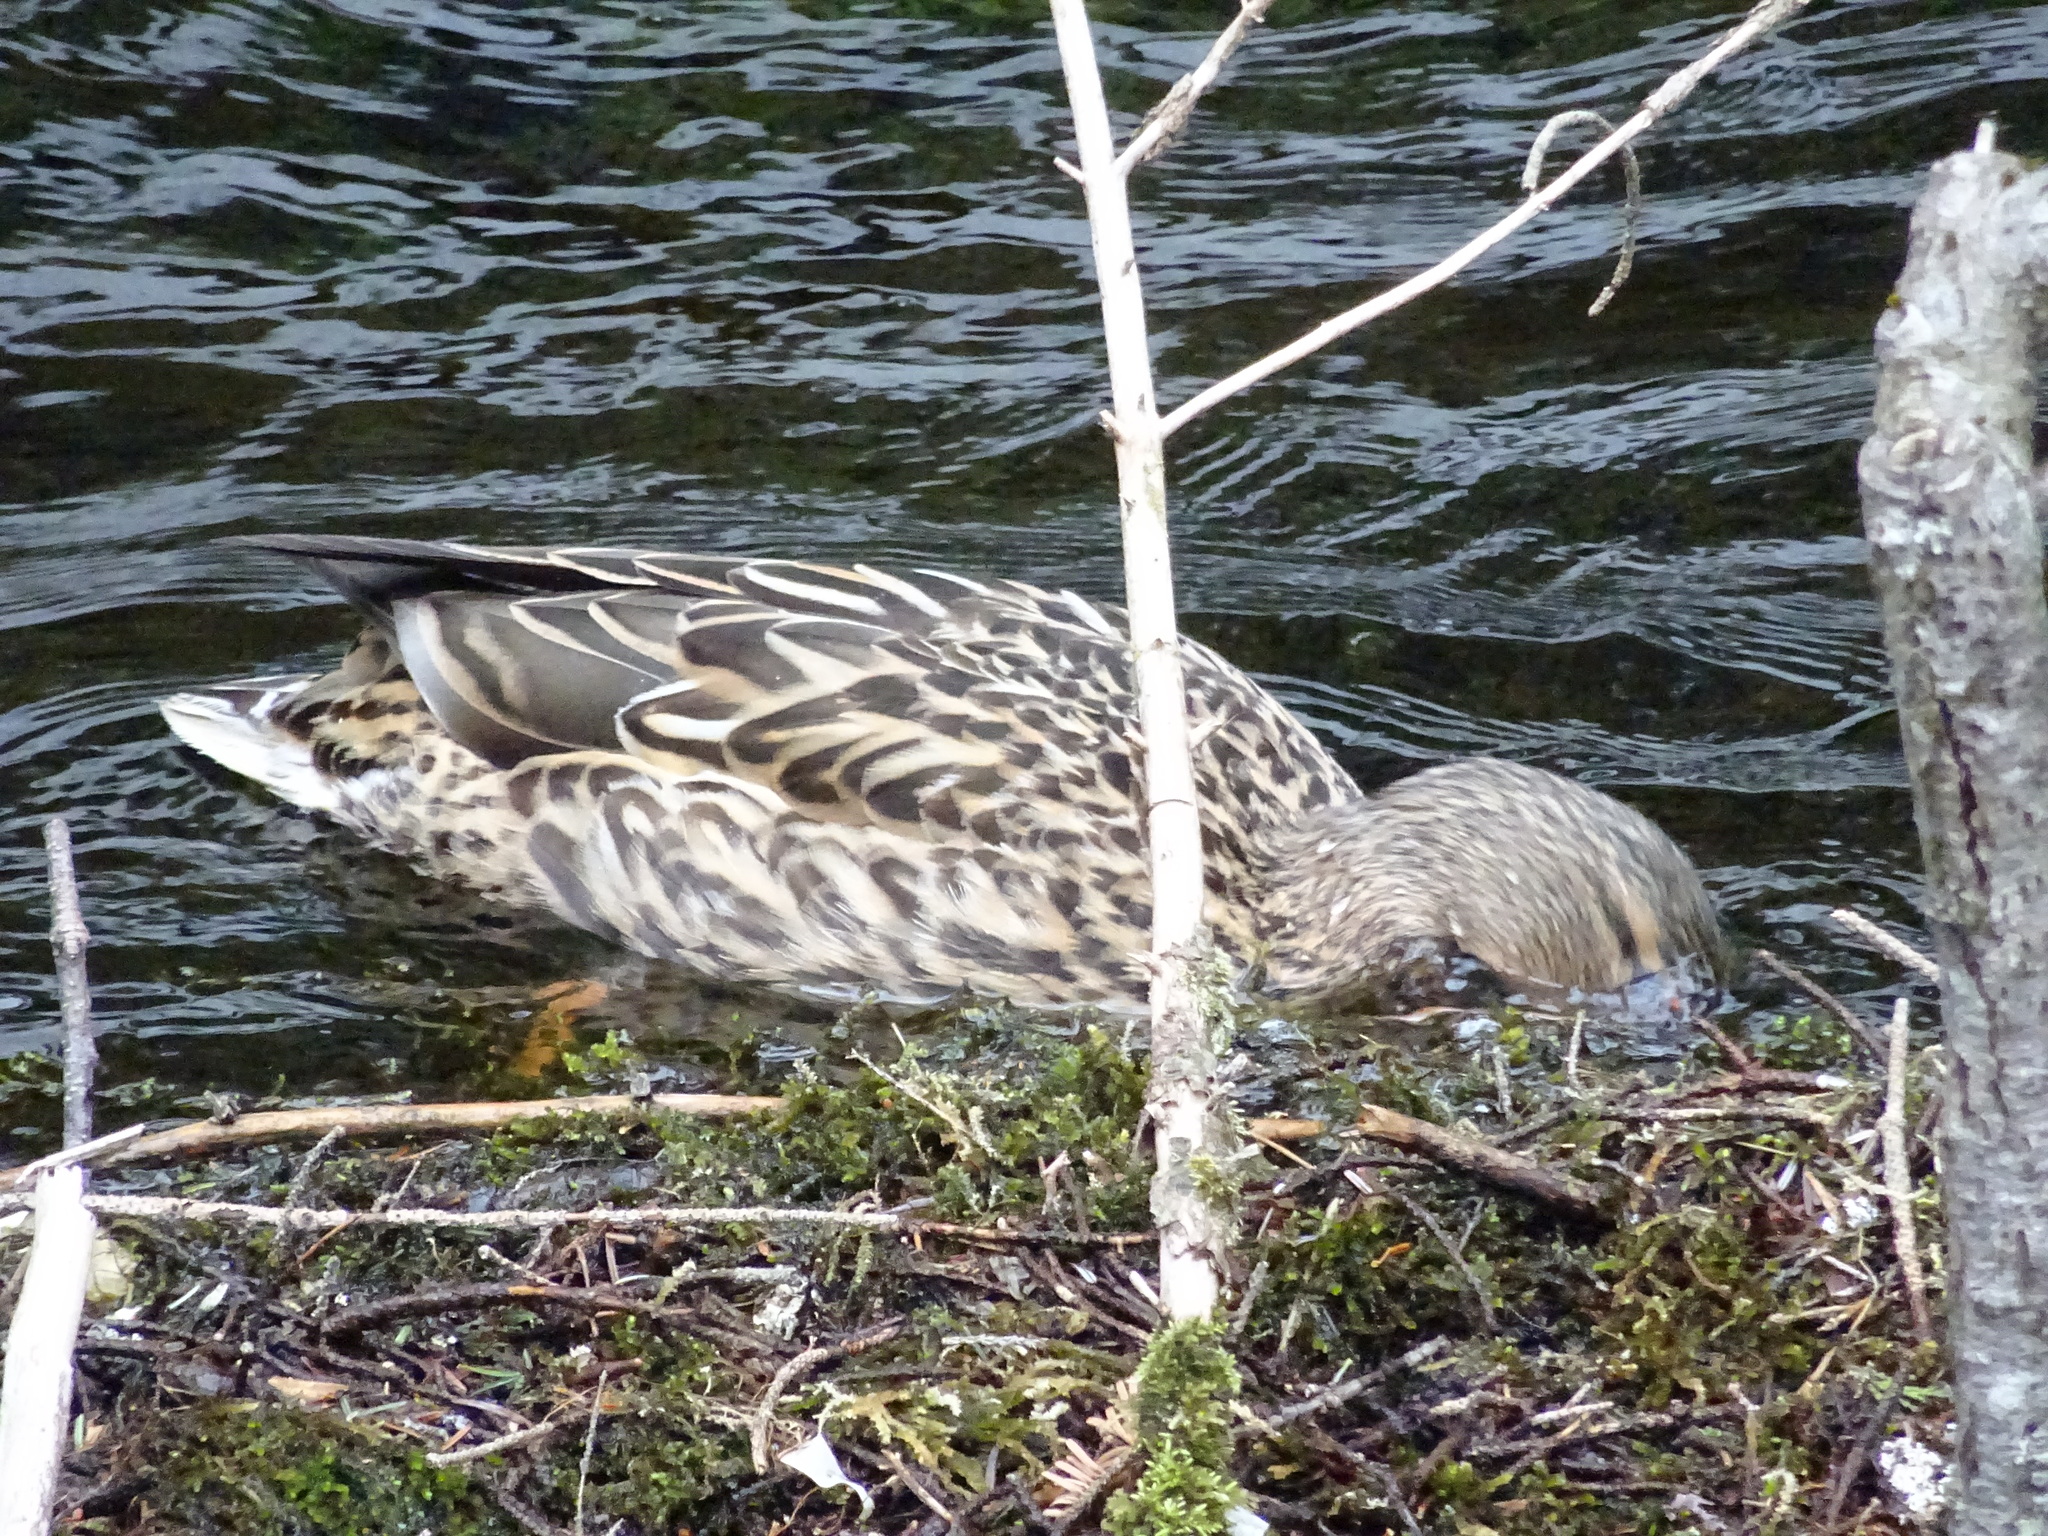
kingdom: Animalia
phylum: Chordata
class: Aves
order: Anseriformes
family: Anatidae
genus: Anas
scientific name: Anas platyrhynchos
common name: Mallard
